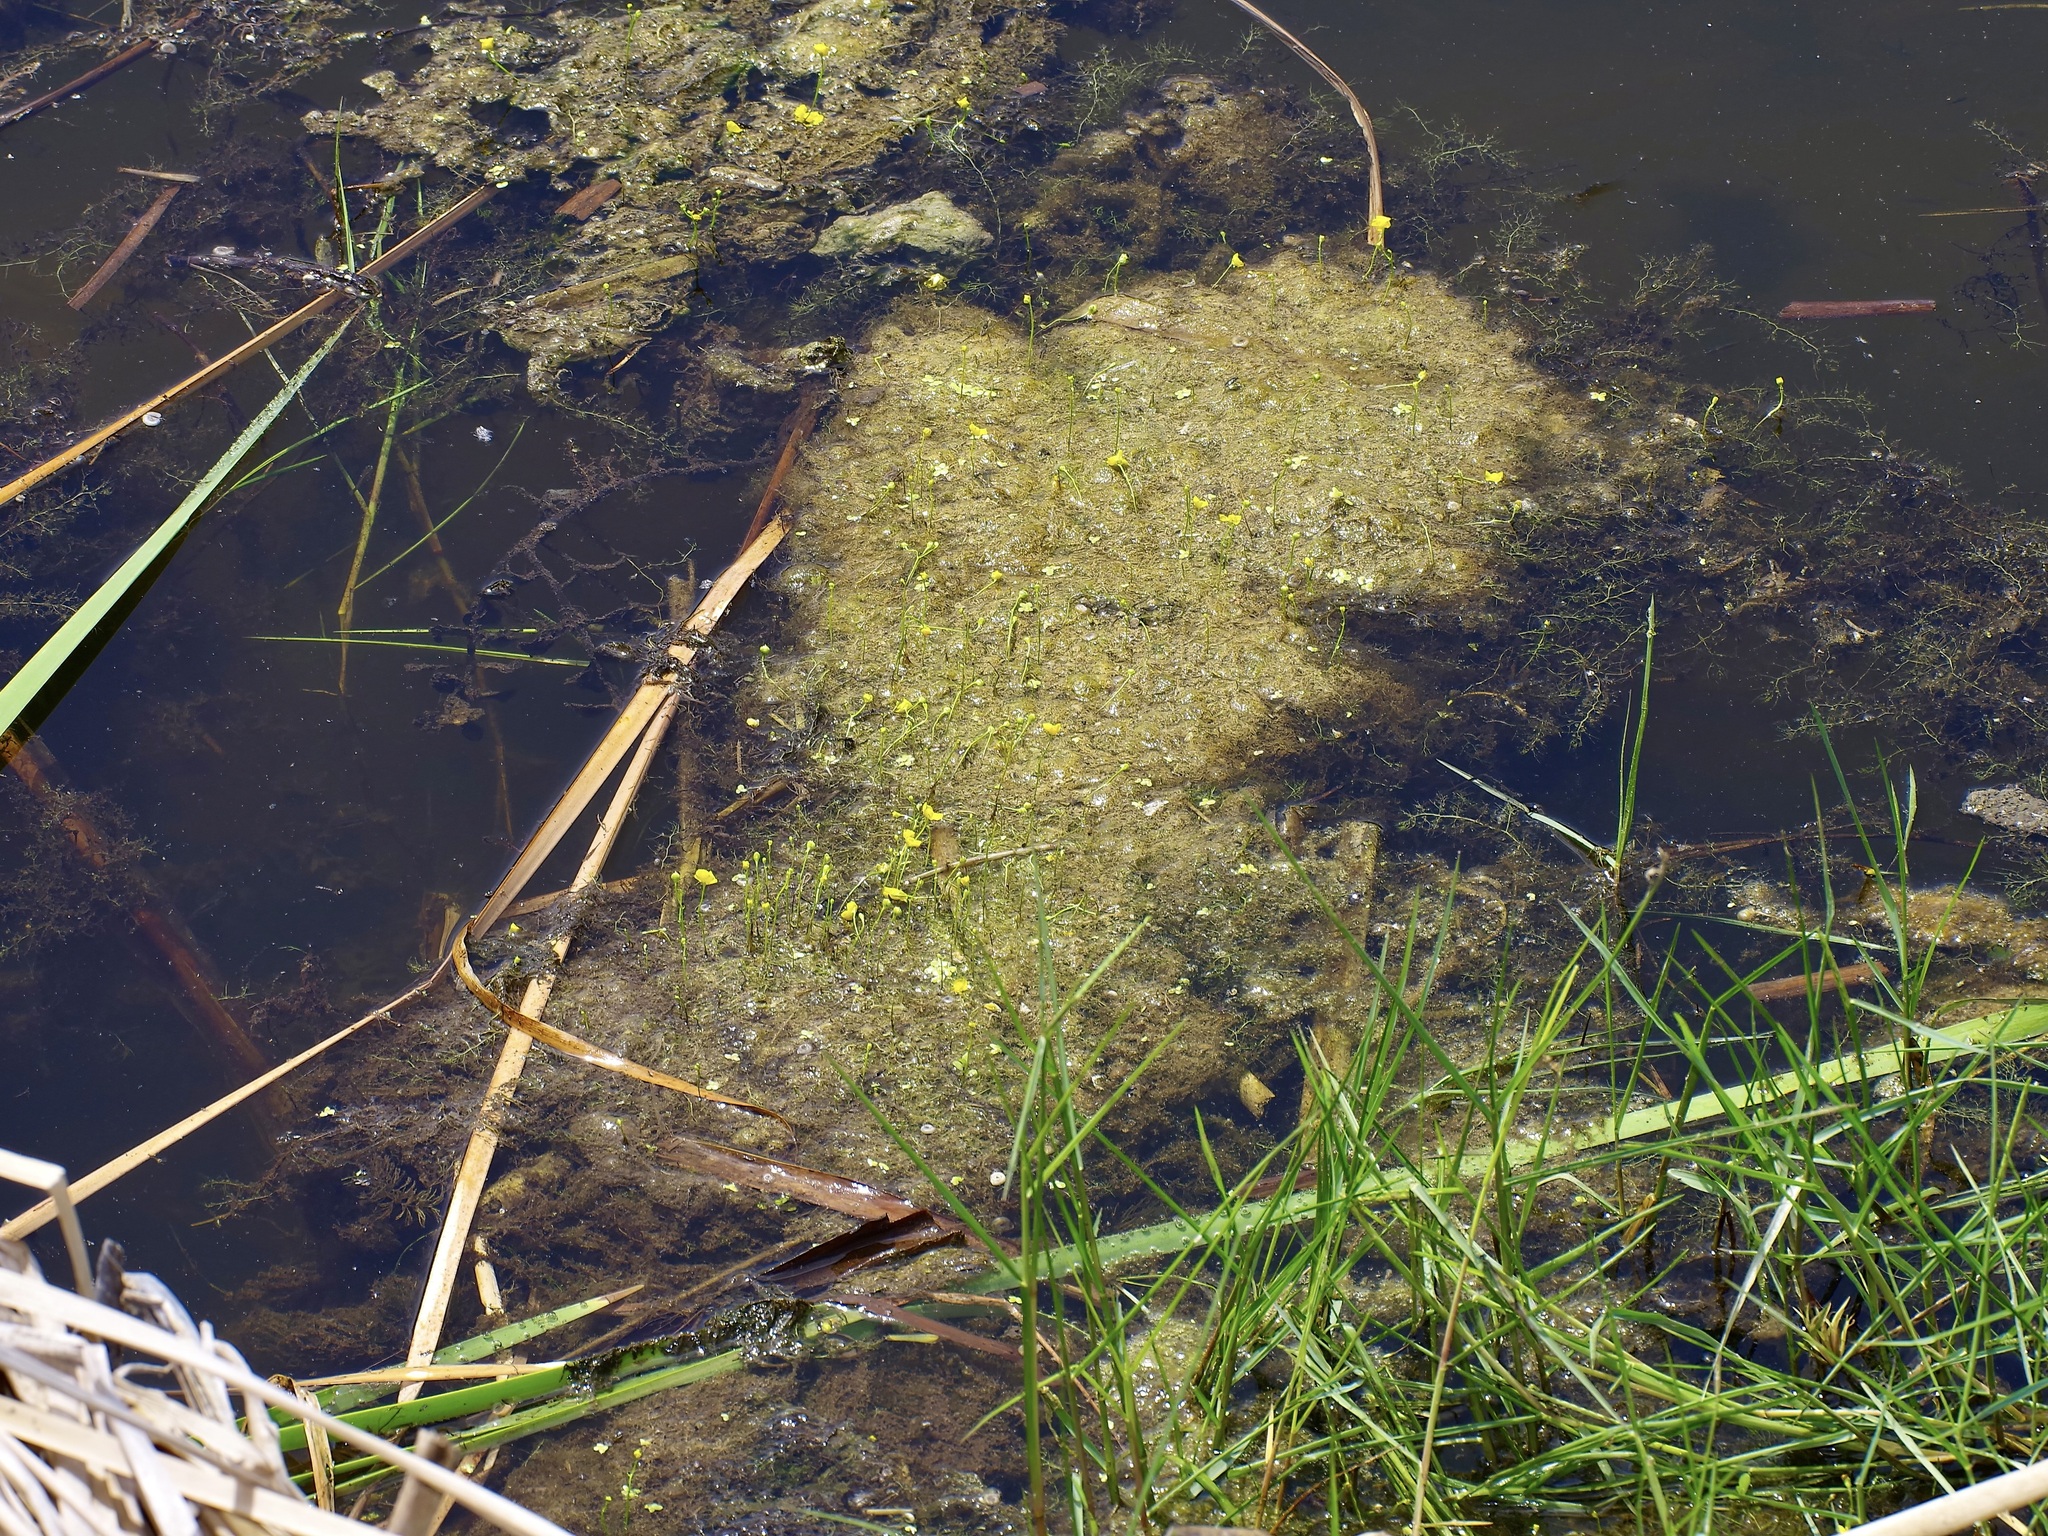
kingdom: Plantae
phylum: Tracheophyta
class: Magnoliopsida
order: Lamiales
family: Lentibulariaceae
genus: Utricularia
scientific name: Utricularia gibba
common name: Humped bladderwort
